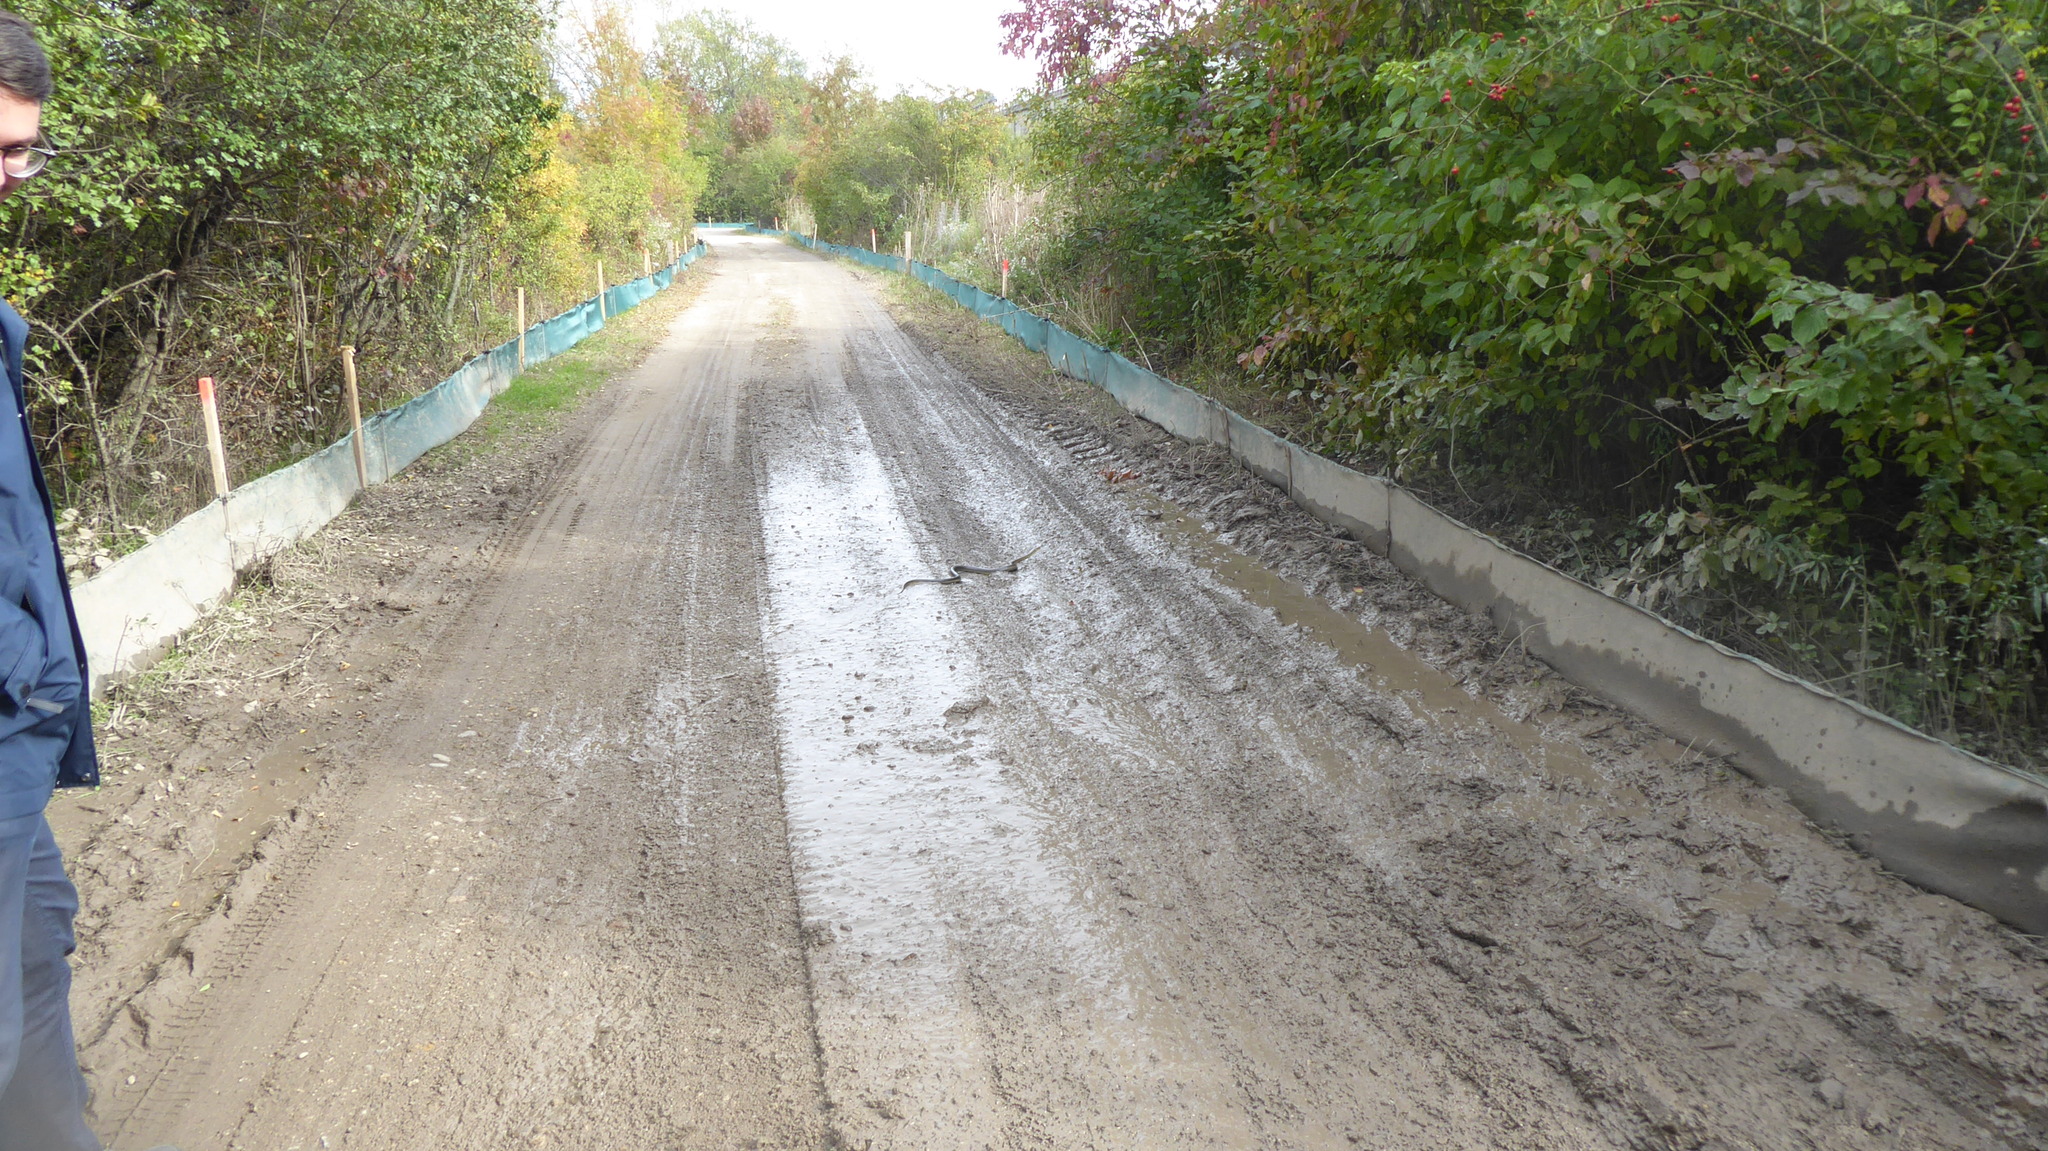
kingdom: Animalia
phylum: Chordata
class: Squamata
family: Colubridae
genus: Zamenis
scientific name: Zamenis longissimus
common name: Aesculapean snake
